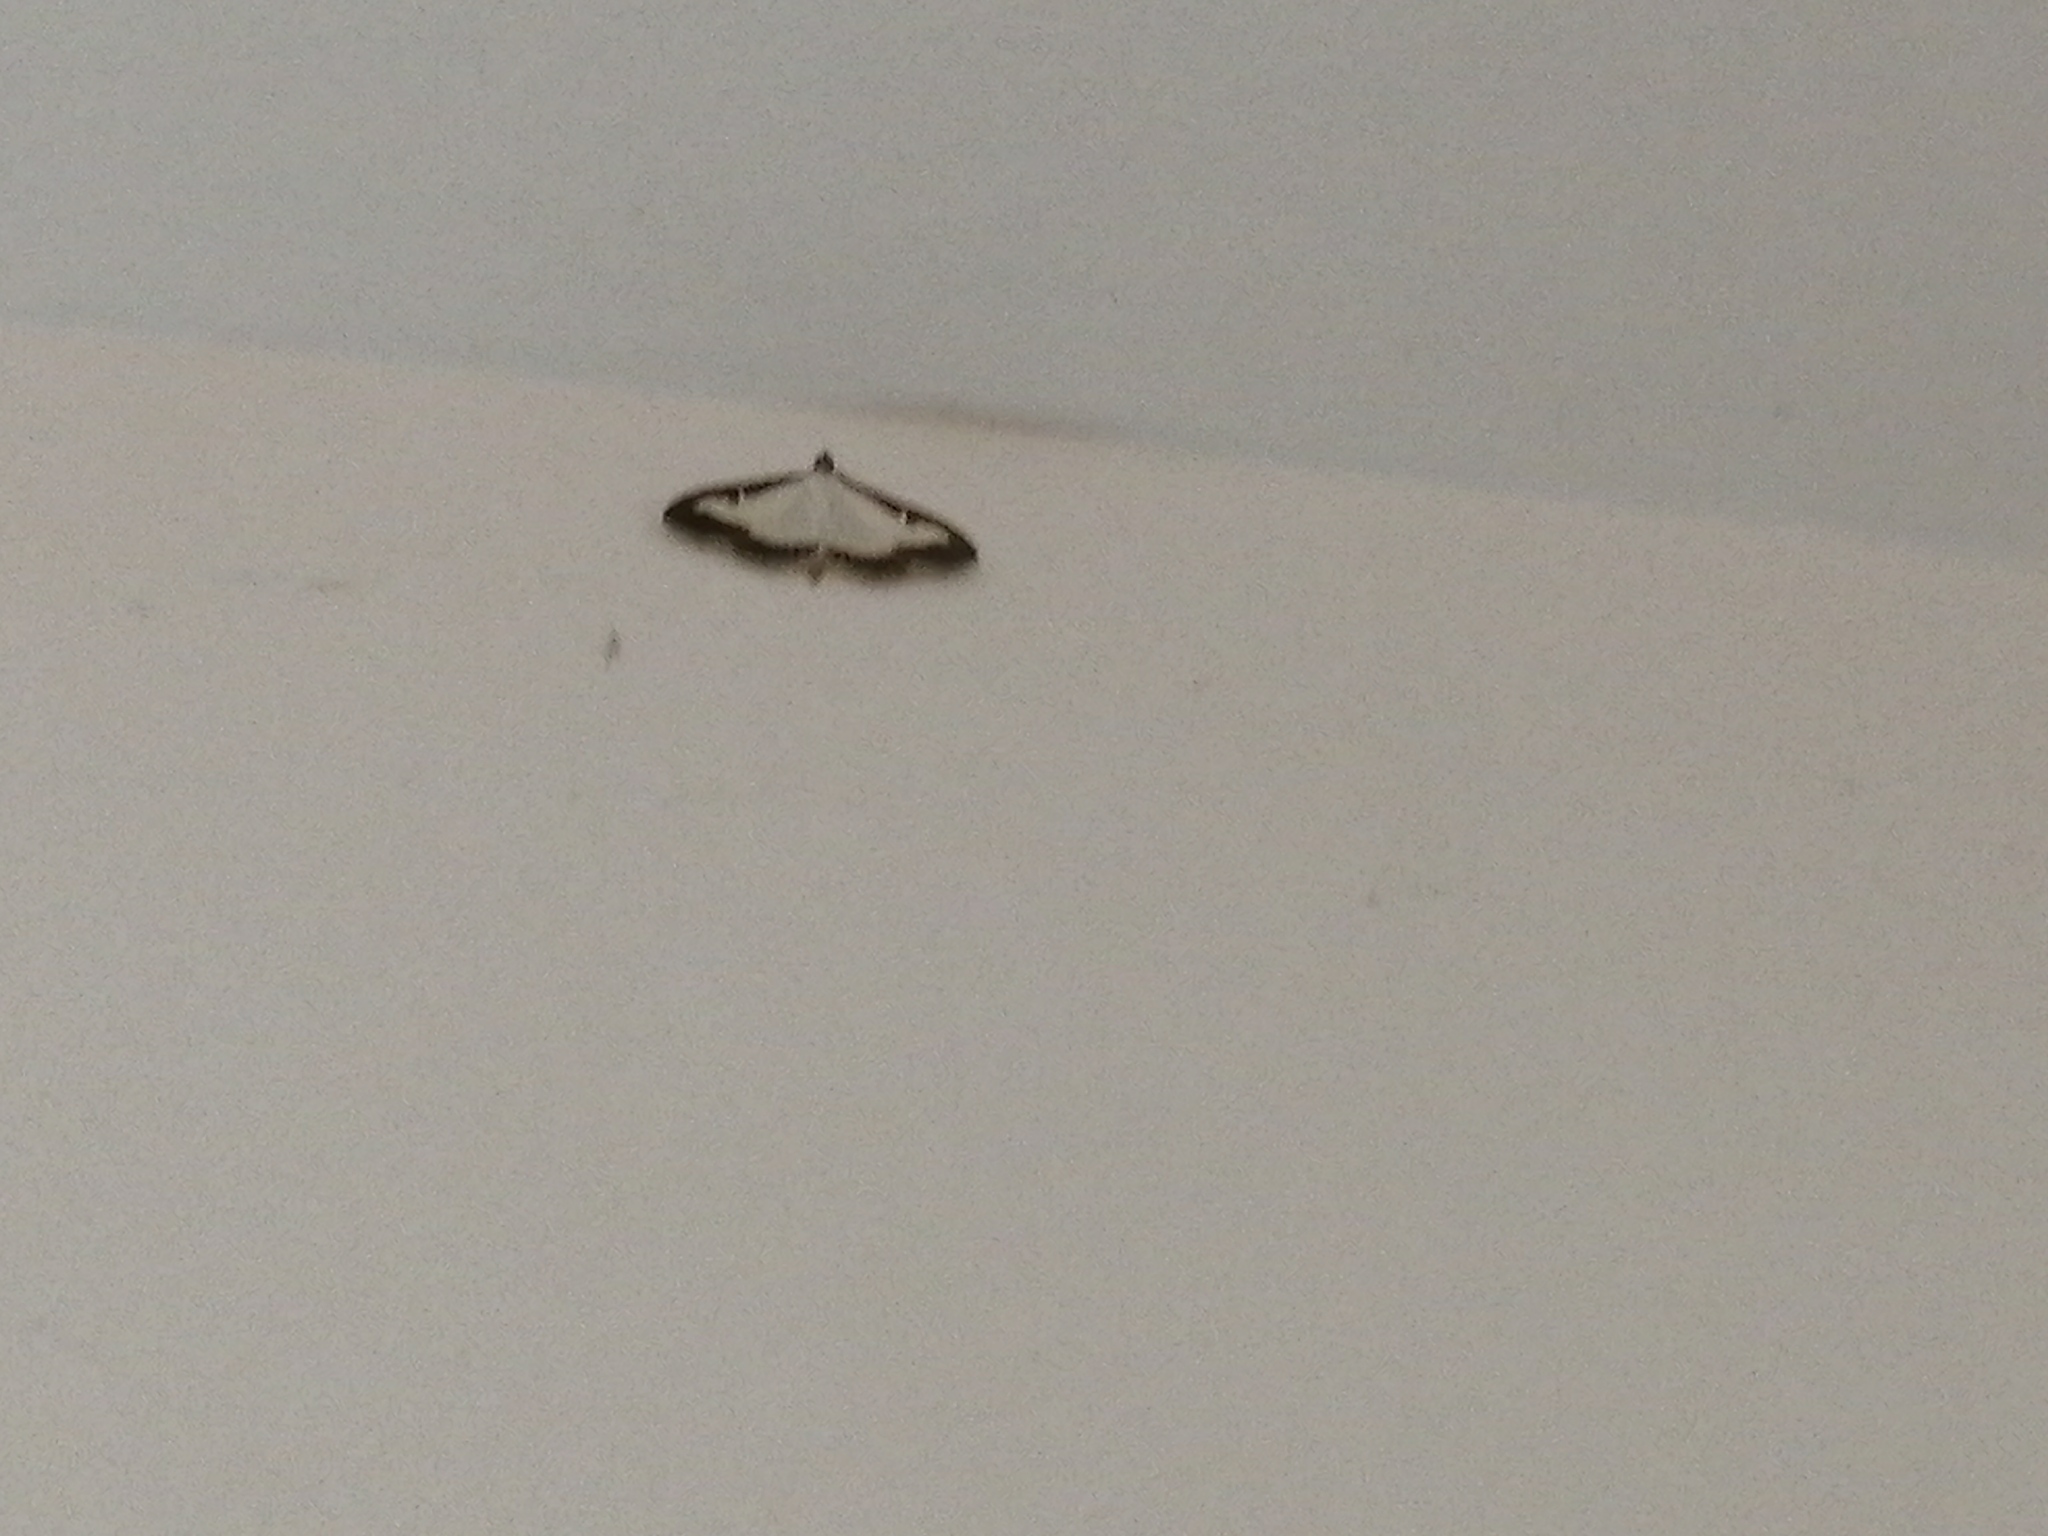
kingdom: Animalia
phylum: Arthropoda
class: Insecta
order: Lepidoptera
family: Crambidae
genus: Cydalima
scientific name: Cydalima perspectalis
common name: Box tree moth
